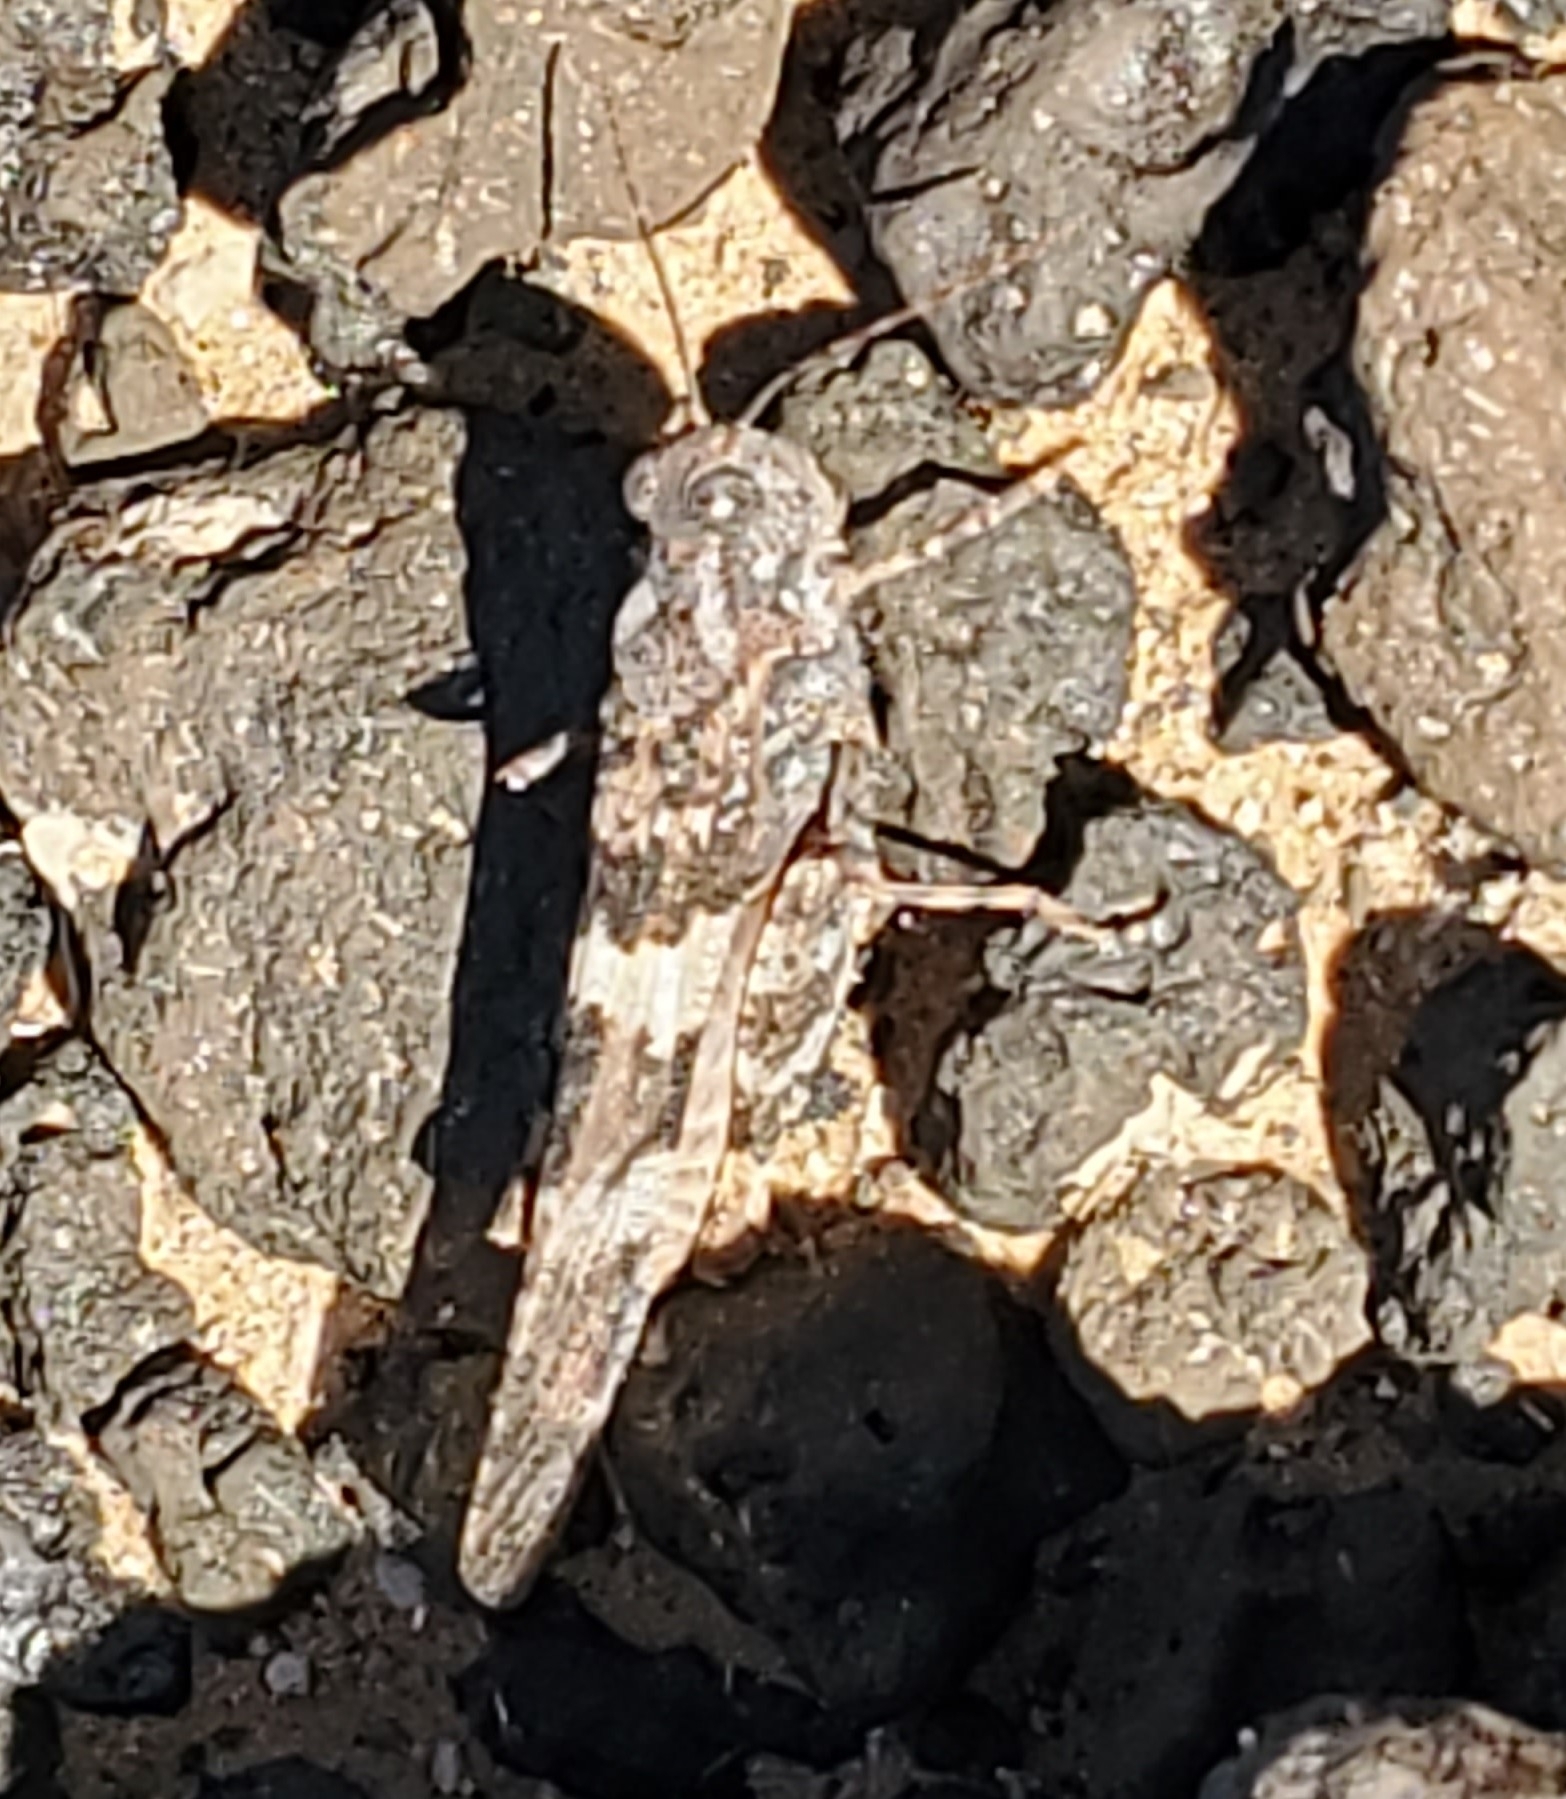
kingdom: Animalia
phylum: Arthropoda
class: Insecta
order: Orthoptera
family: Acrididae
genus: Trimerotropis
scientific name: Trimerotropis pallidipennis
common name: Pallid-winged grasshopper
